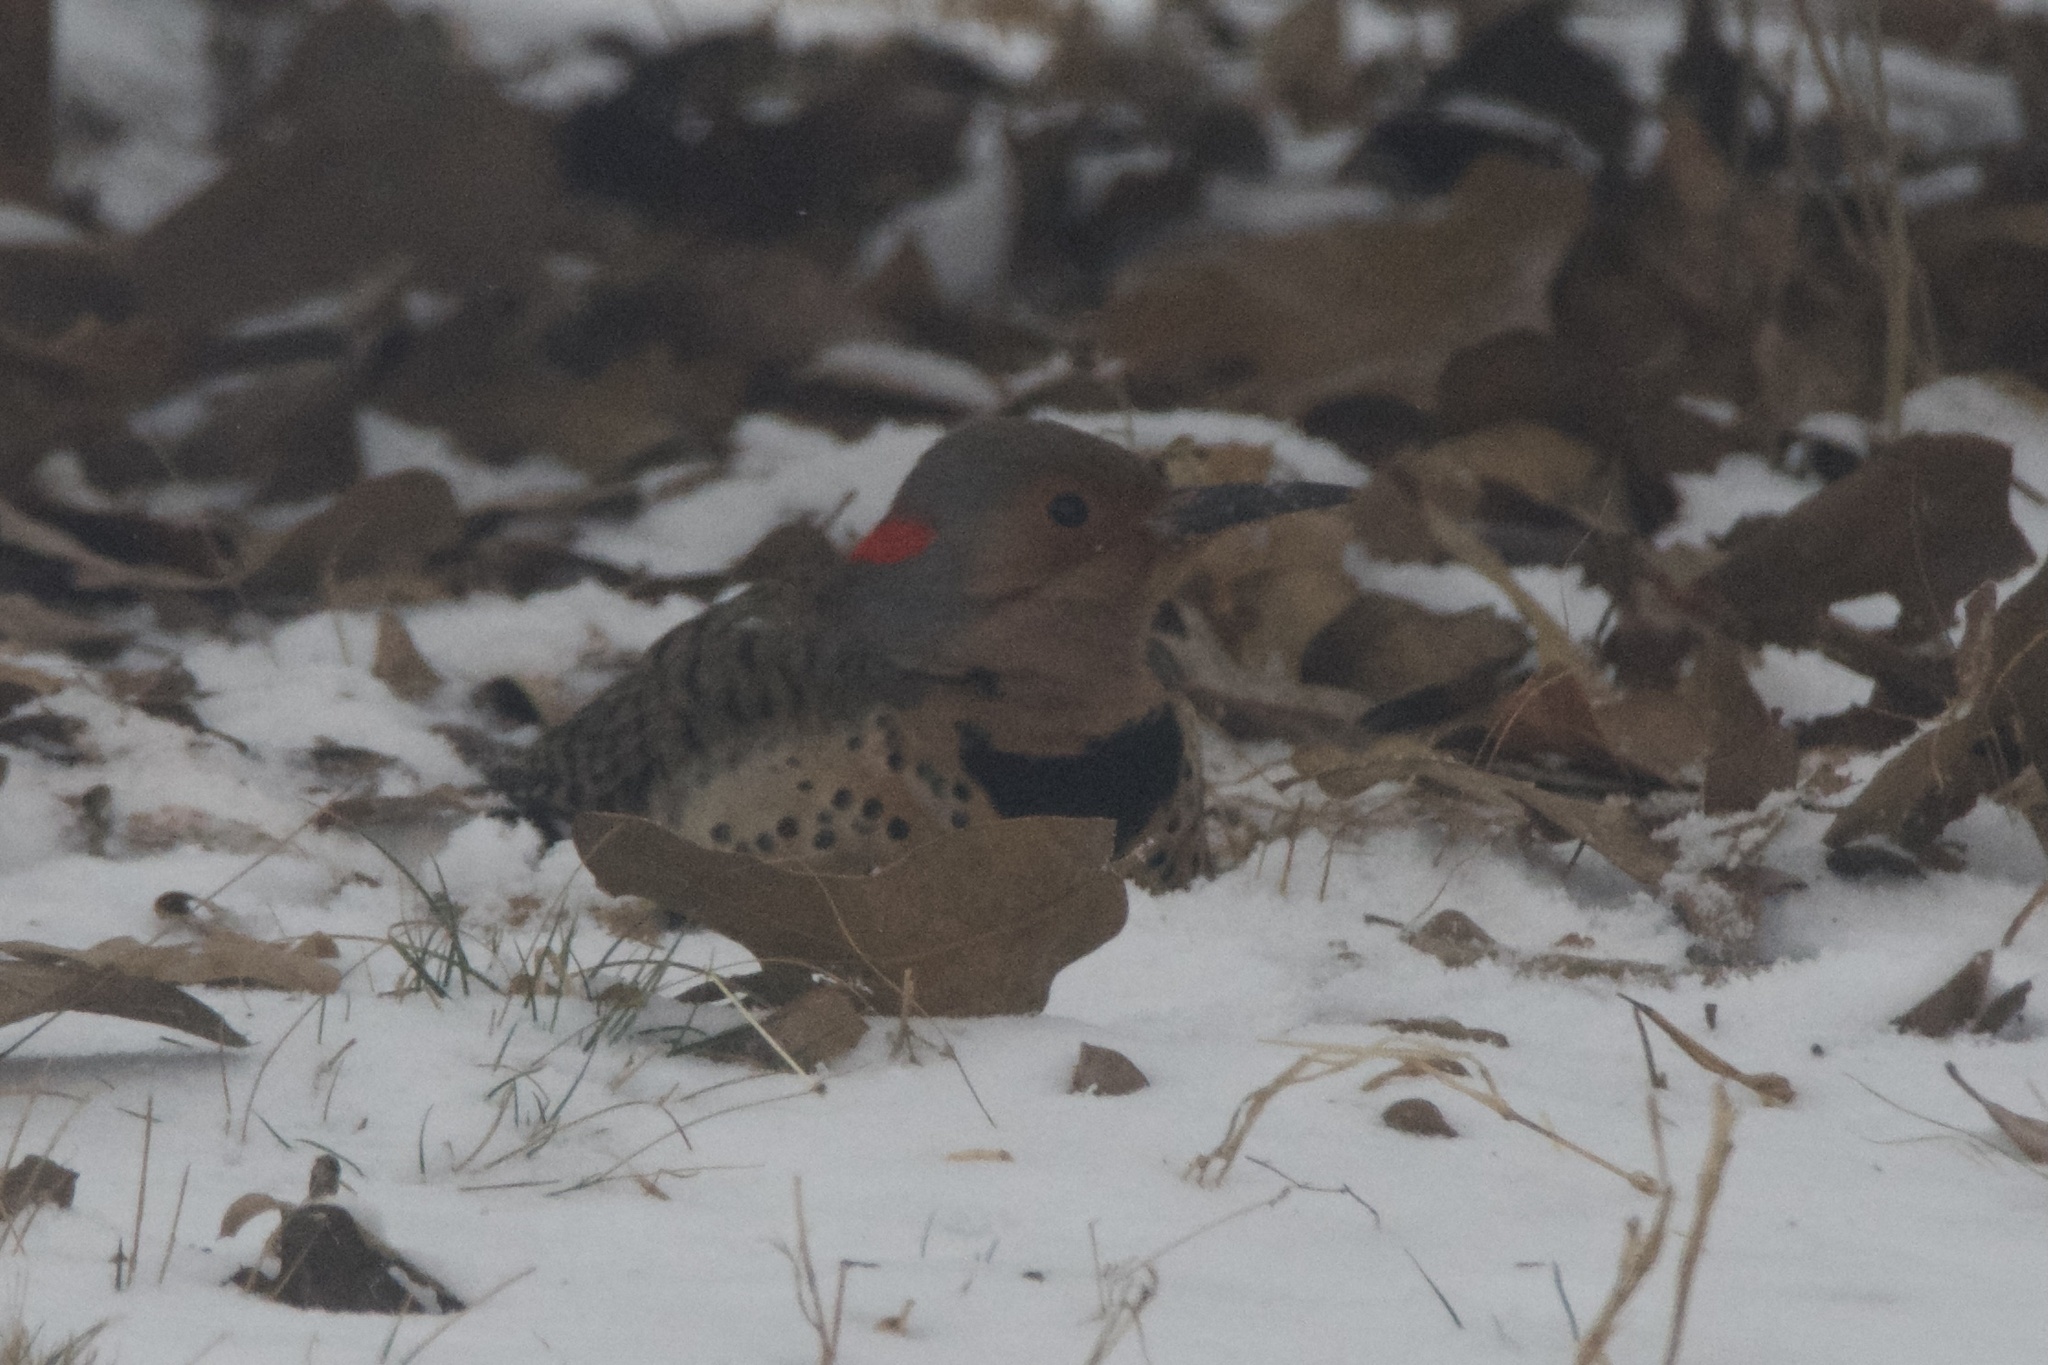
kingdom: Animalia
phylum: Chordata
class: Aves
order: Piciformes
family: Picidae
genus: Colaptes
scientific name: Colaptes auratus
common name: Northern flicker
